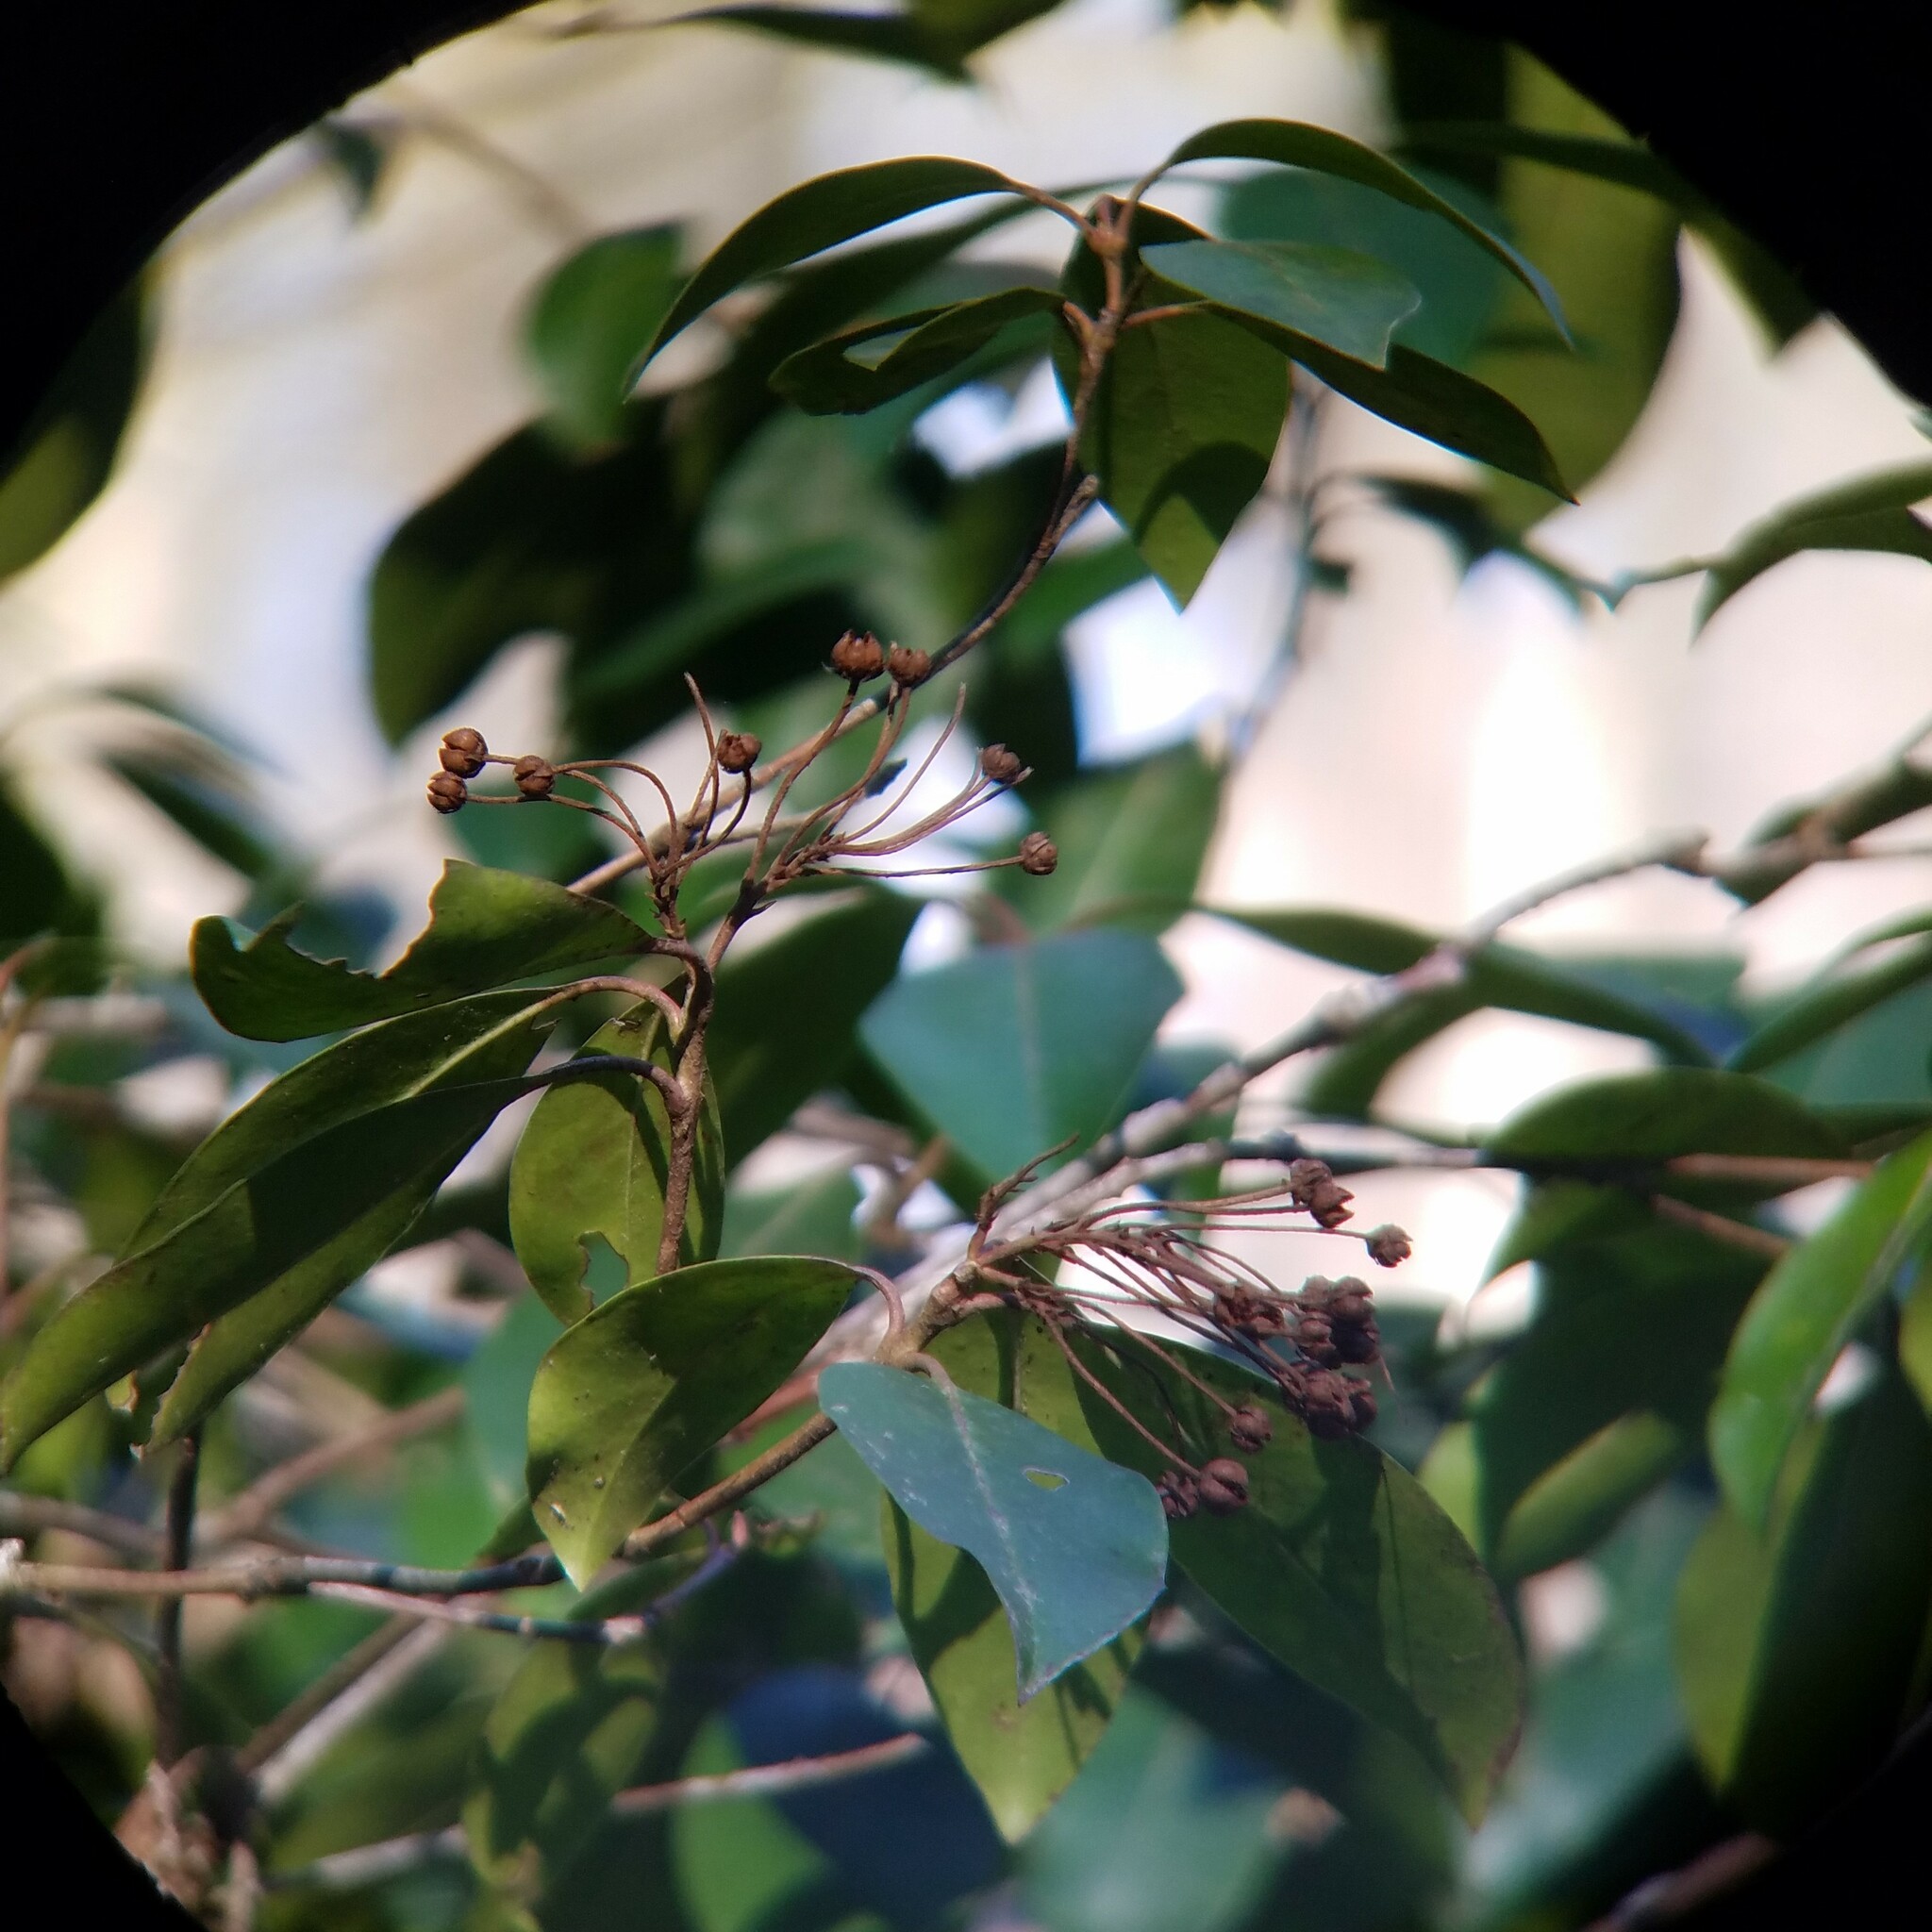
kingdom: Plantae
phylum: Tracheophyta
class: Magnoliopsida
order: Ericales
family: Ericaceae
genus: Kalmia
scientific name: Kalmia latifolia
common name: Mountain-laurel
